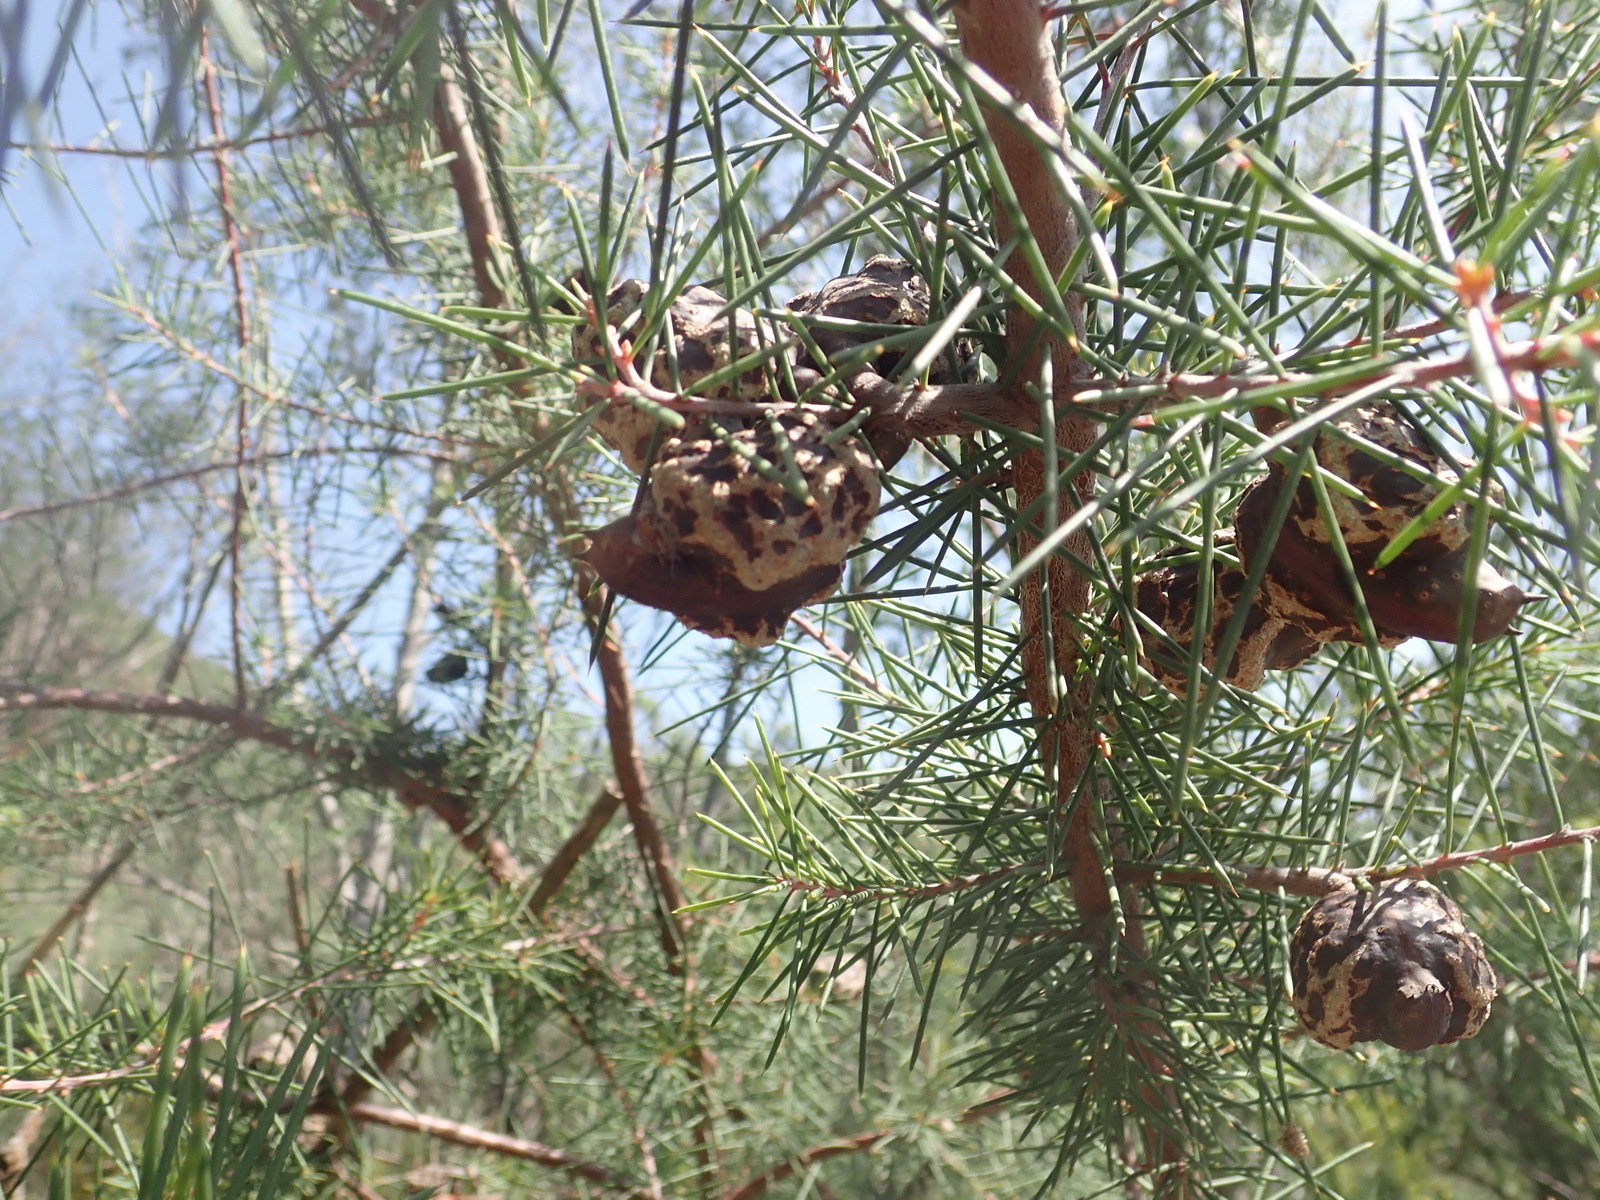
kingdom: Plantae
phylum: Tracheophyta
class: Magnoliopsida
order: Proteales
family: Proteaceae
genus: Hakea
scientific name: Hakea sericea
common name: Needle bush
